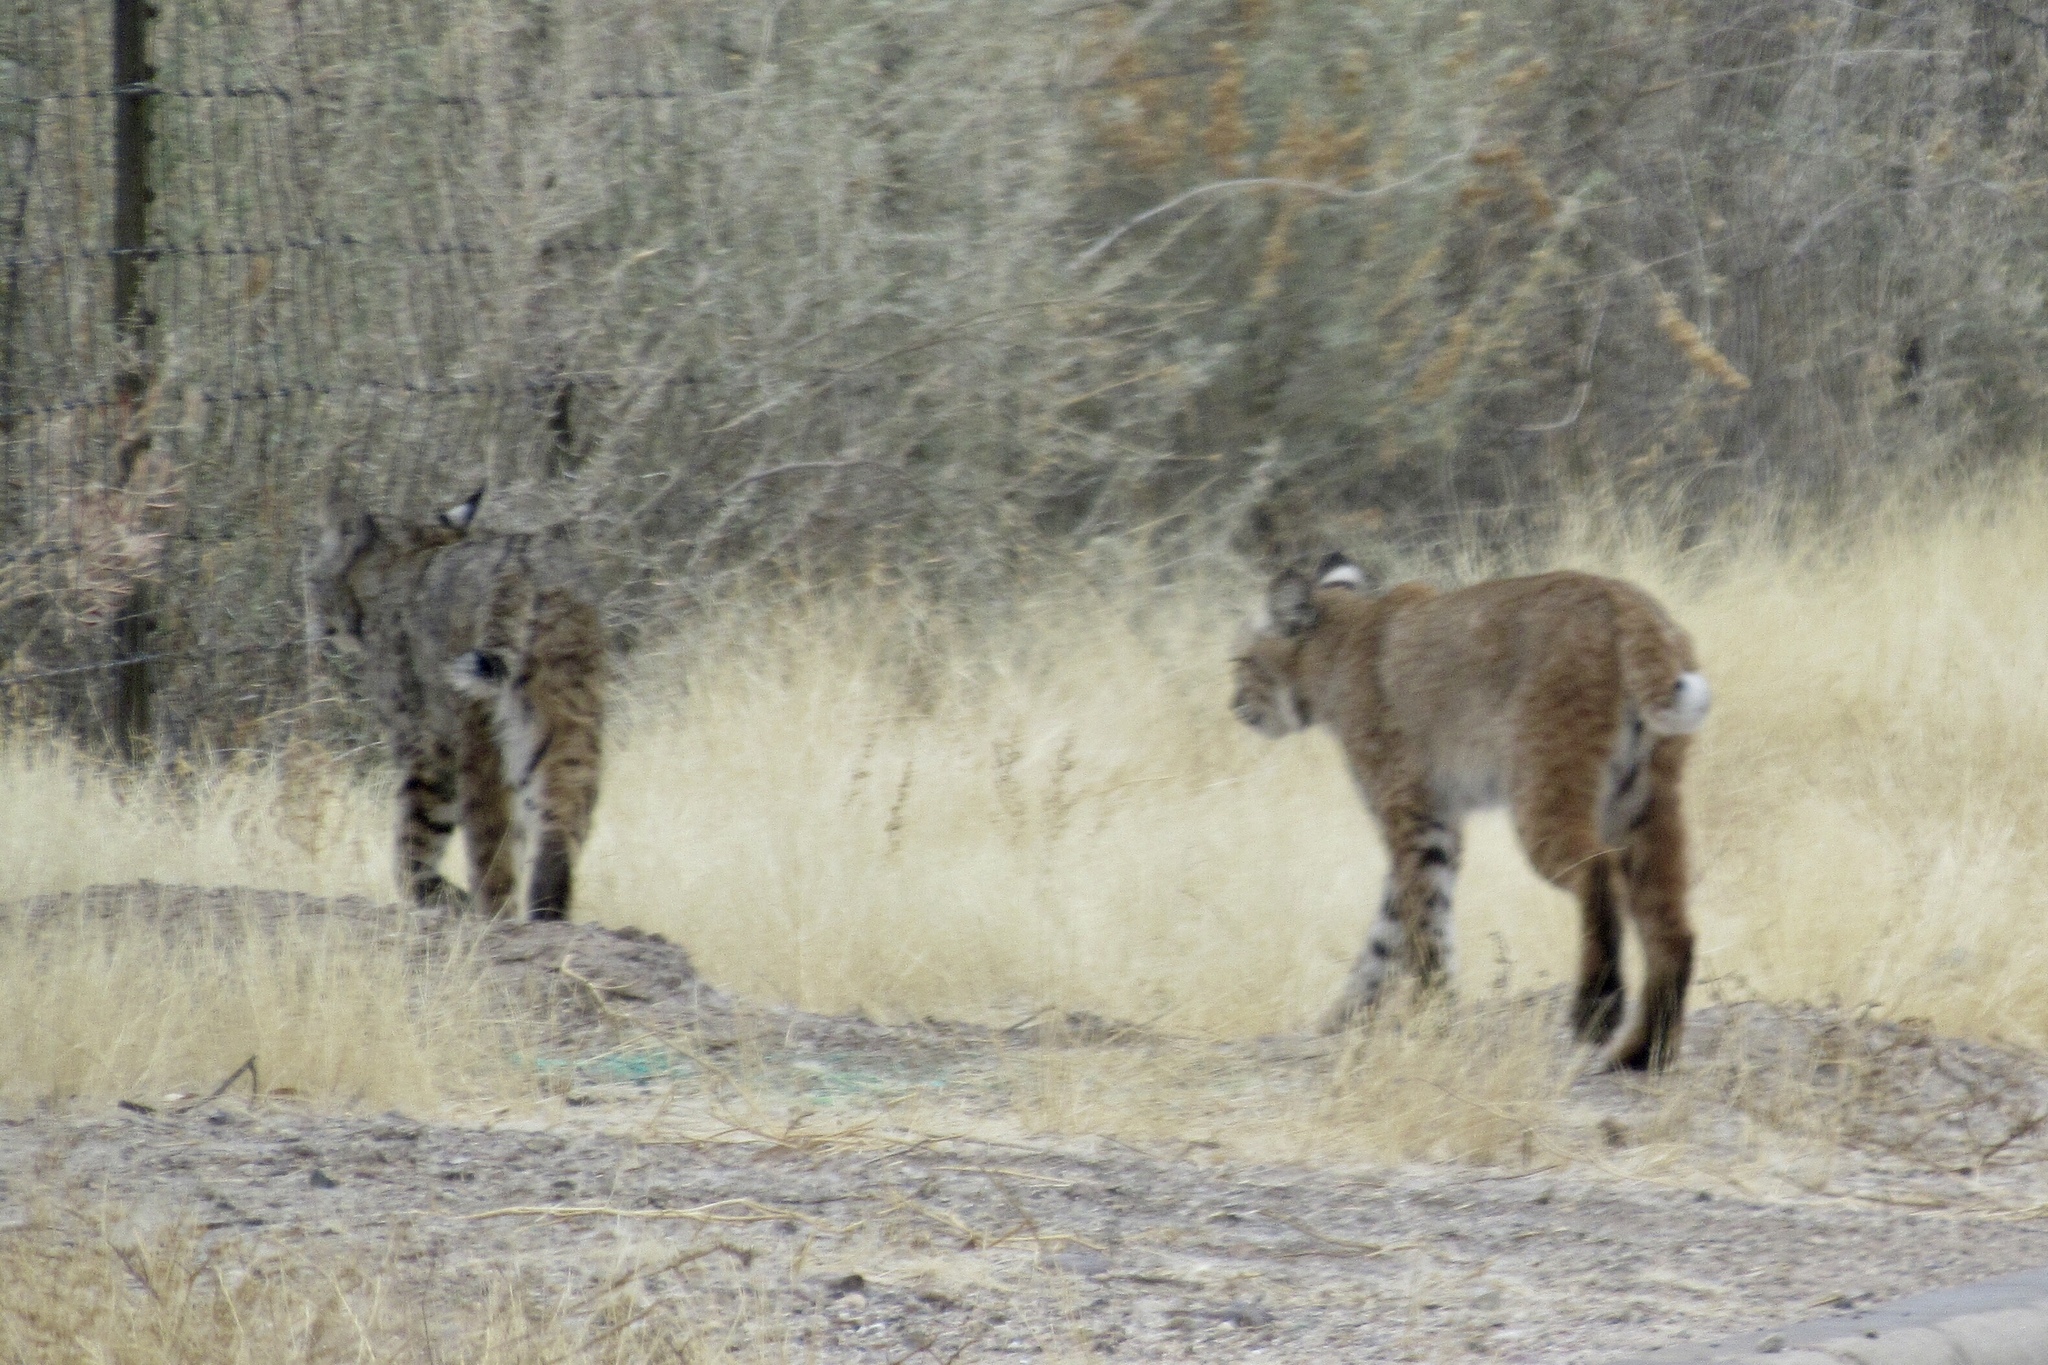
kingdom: Animalia
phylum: Chordata
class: Mammalia
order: Carnivora
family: Felidae
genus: Lynx
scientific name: Lynx rufus
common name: Bobcat
